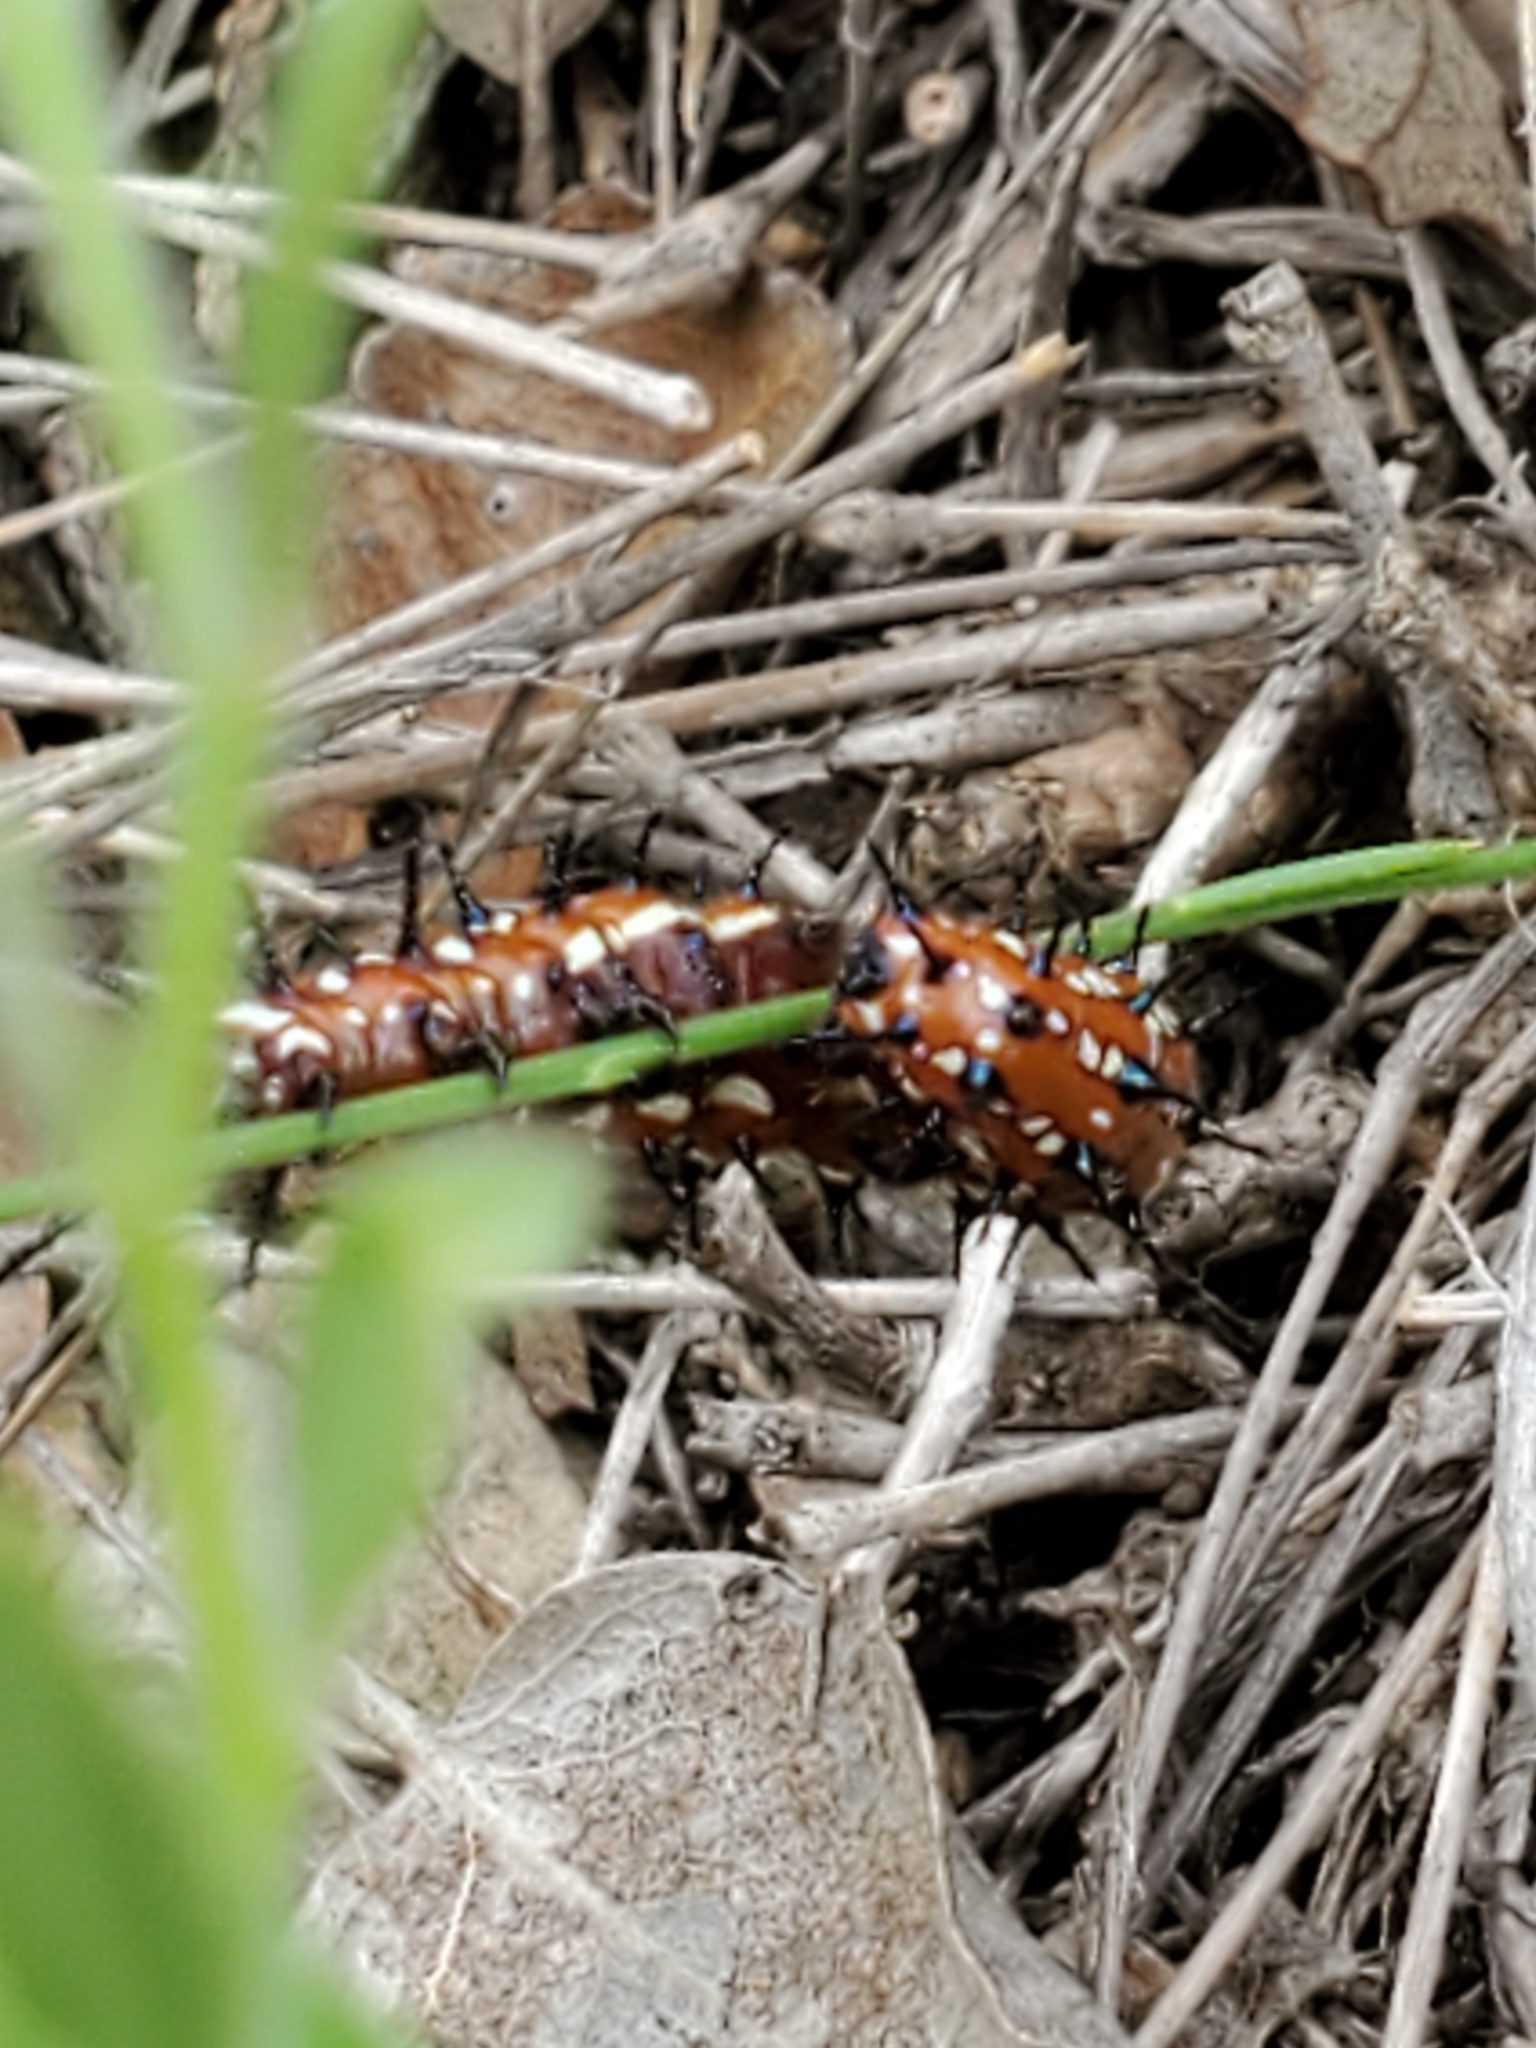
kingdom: Animalia
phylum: Arthropoda
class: Insecta
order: Lepidoptera
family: Nymphalidae
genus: Euptoieta
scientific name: Euptoieta claudia
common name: Variegated fritillary
